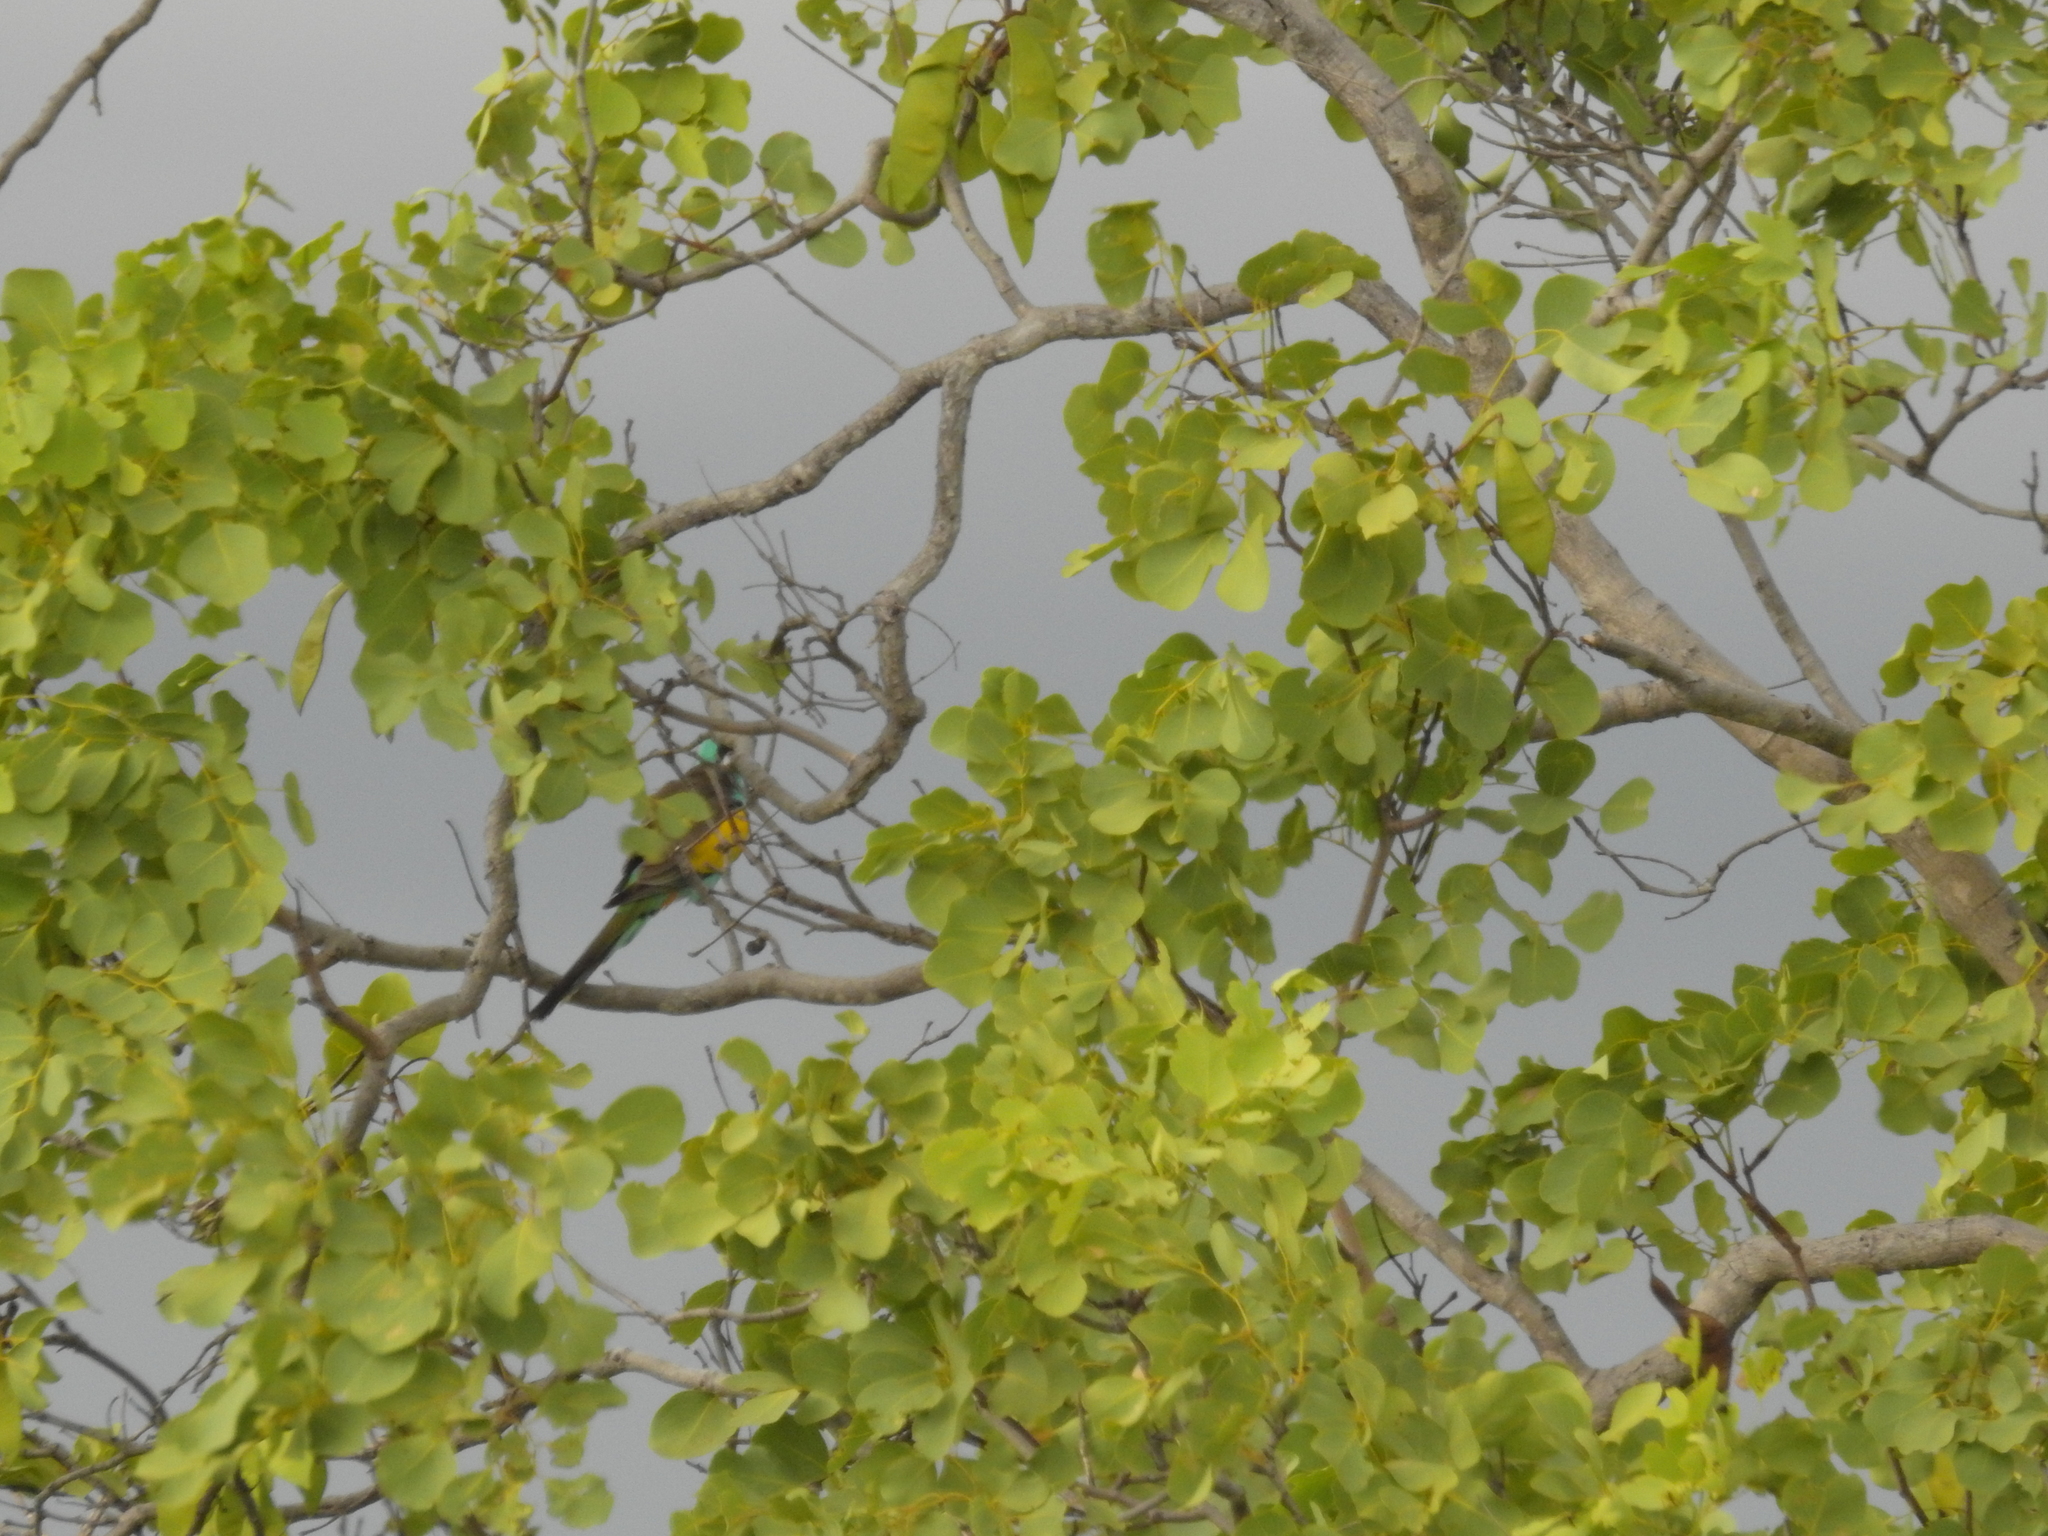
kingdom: Animalia
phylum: Chordata
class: Aves
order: Psittaciformes
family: Psittaculidae
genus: Psephotellus
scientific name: Psephotellus dissimilis
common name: Hooded parrot
